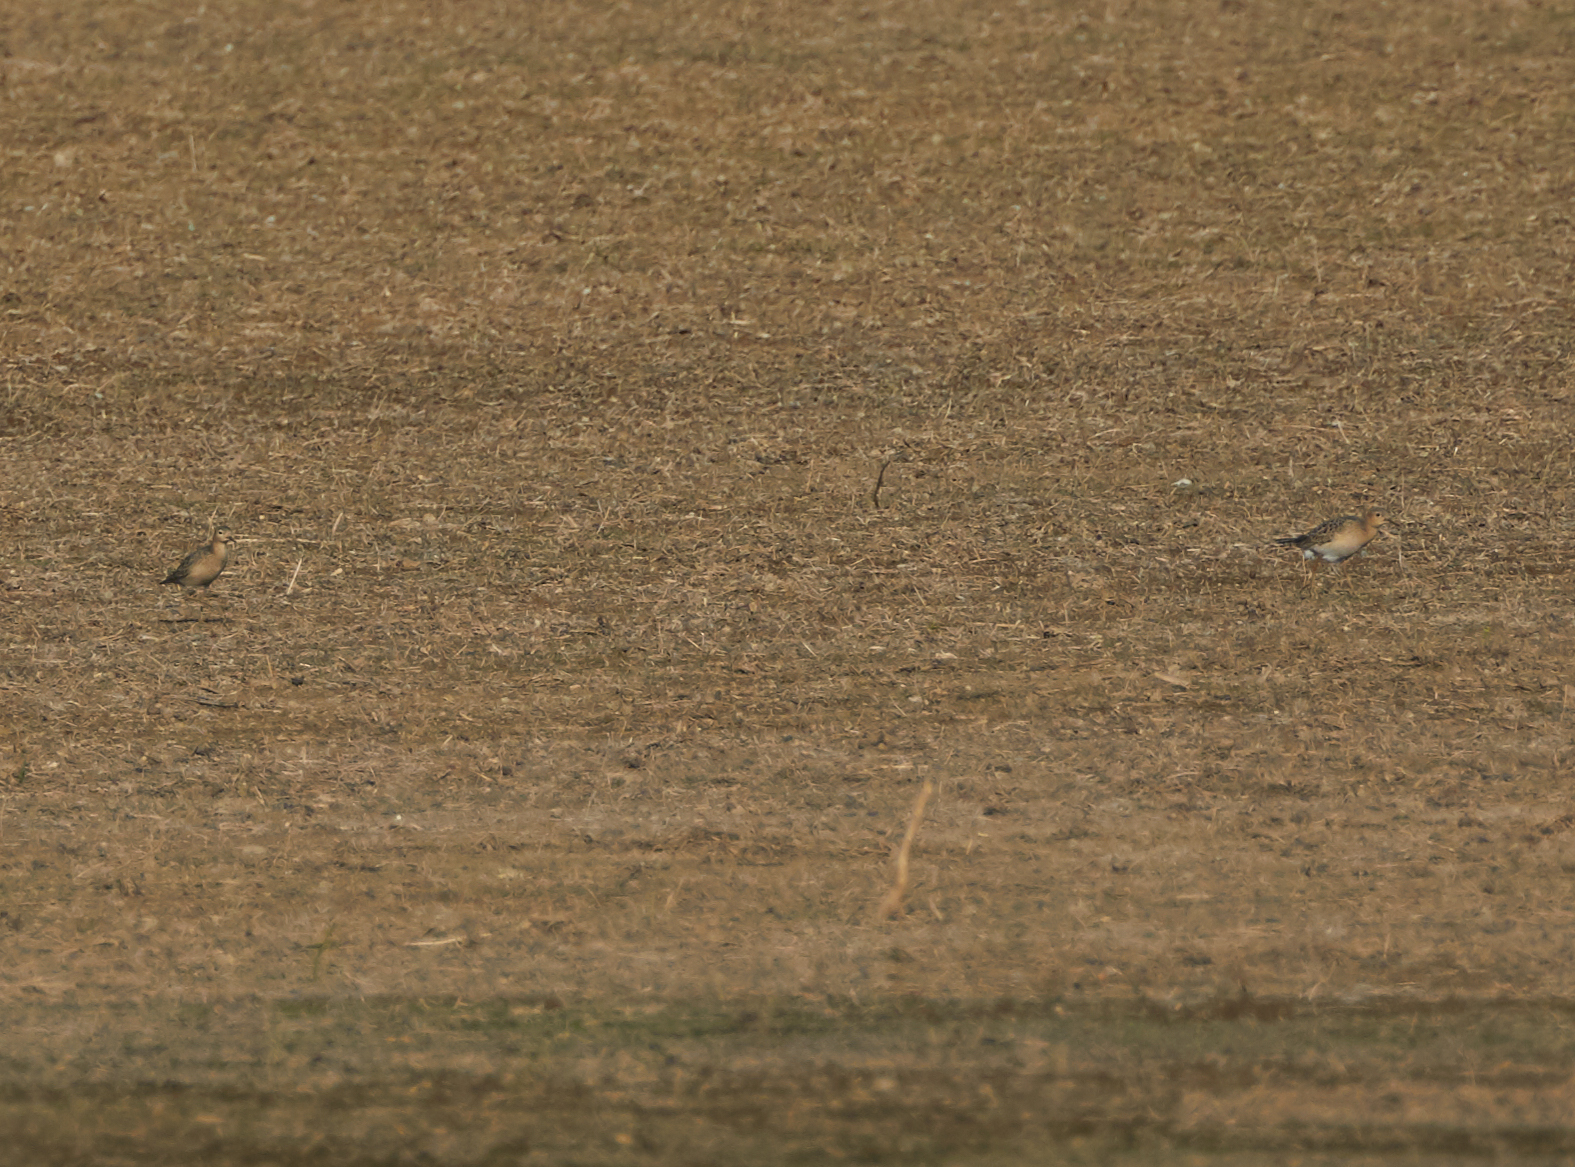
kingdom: Animalia
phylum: Chordata
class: Aves
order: Charadriiformes
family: Scolopacidae
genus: Calidris
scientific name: Calidris subruficollis
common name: Buff-breasted sandpiper
